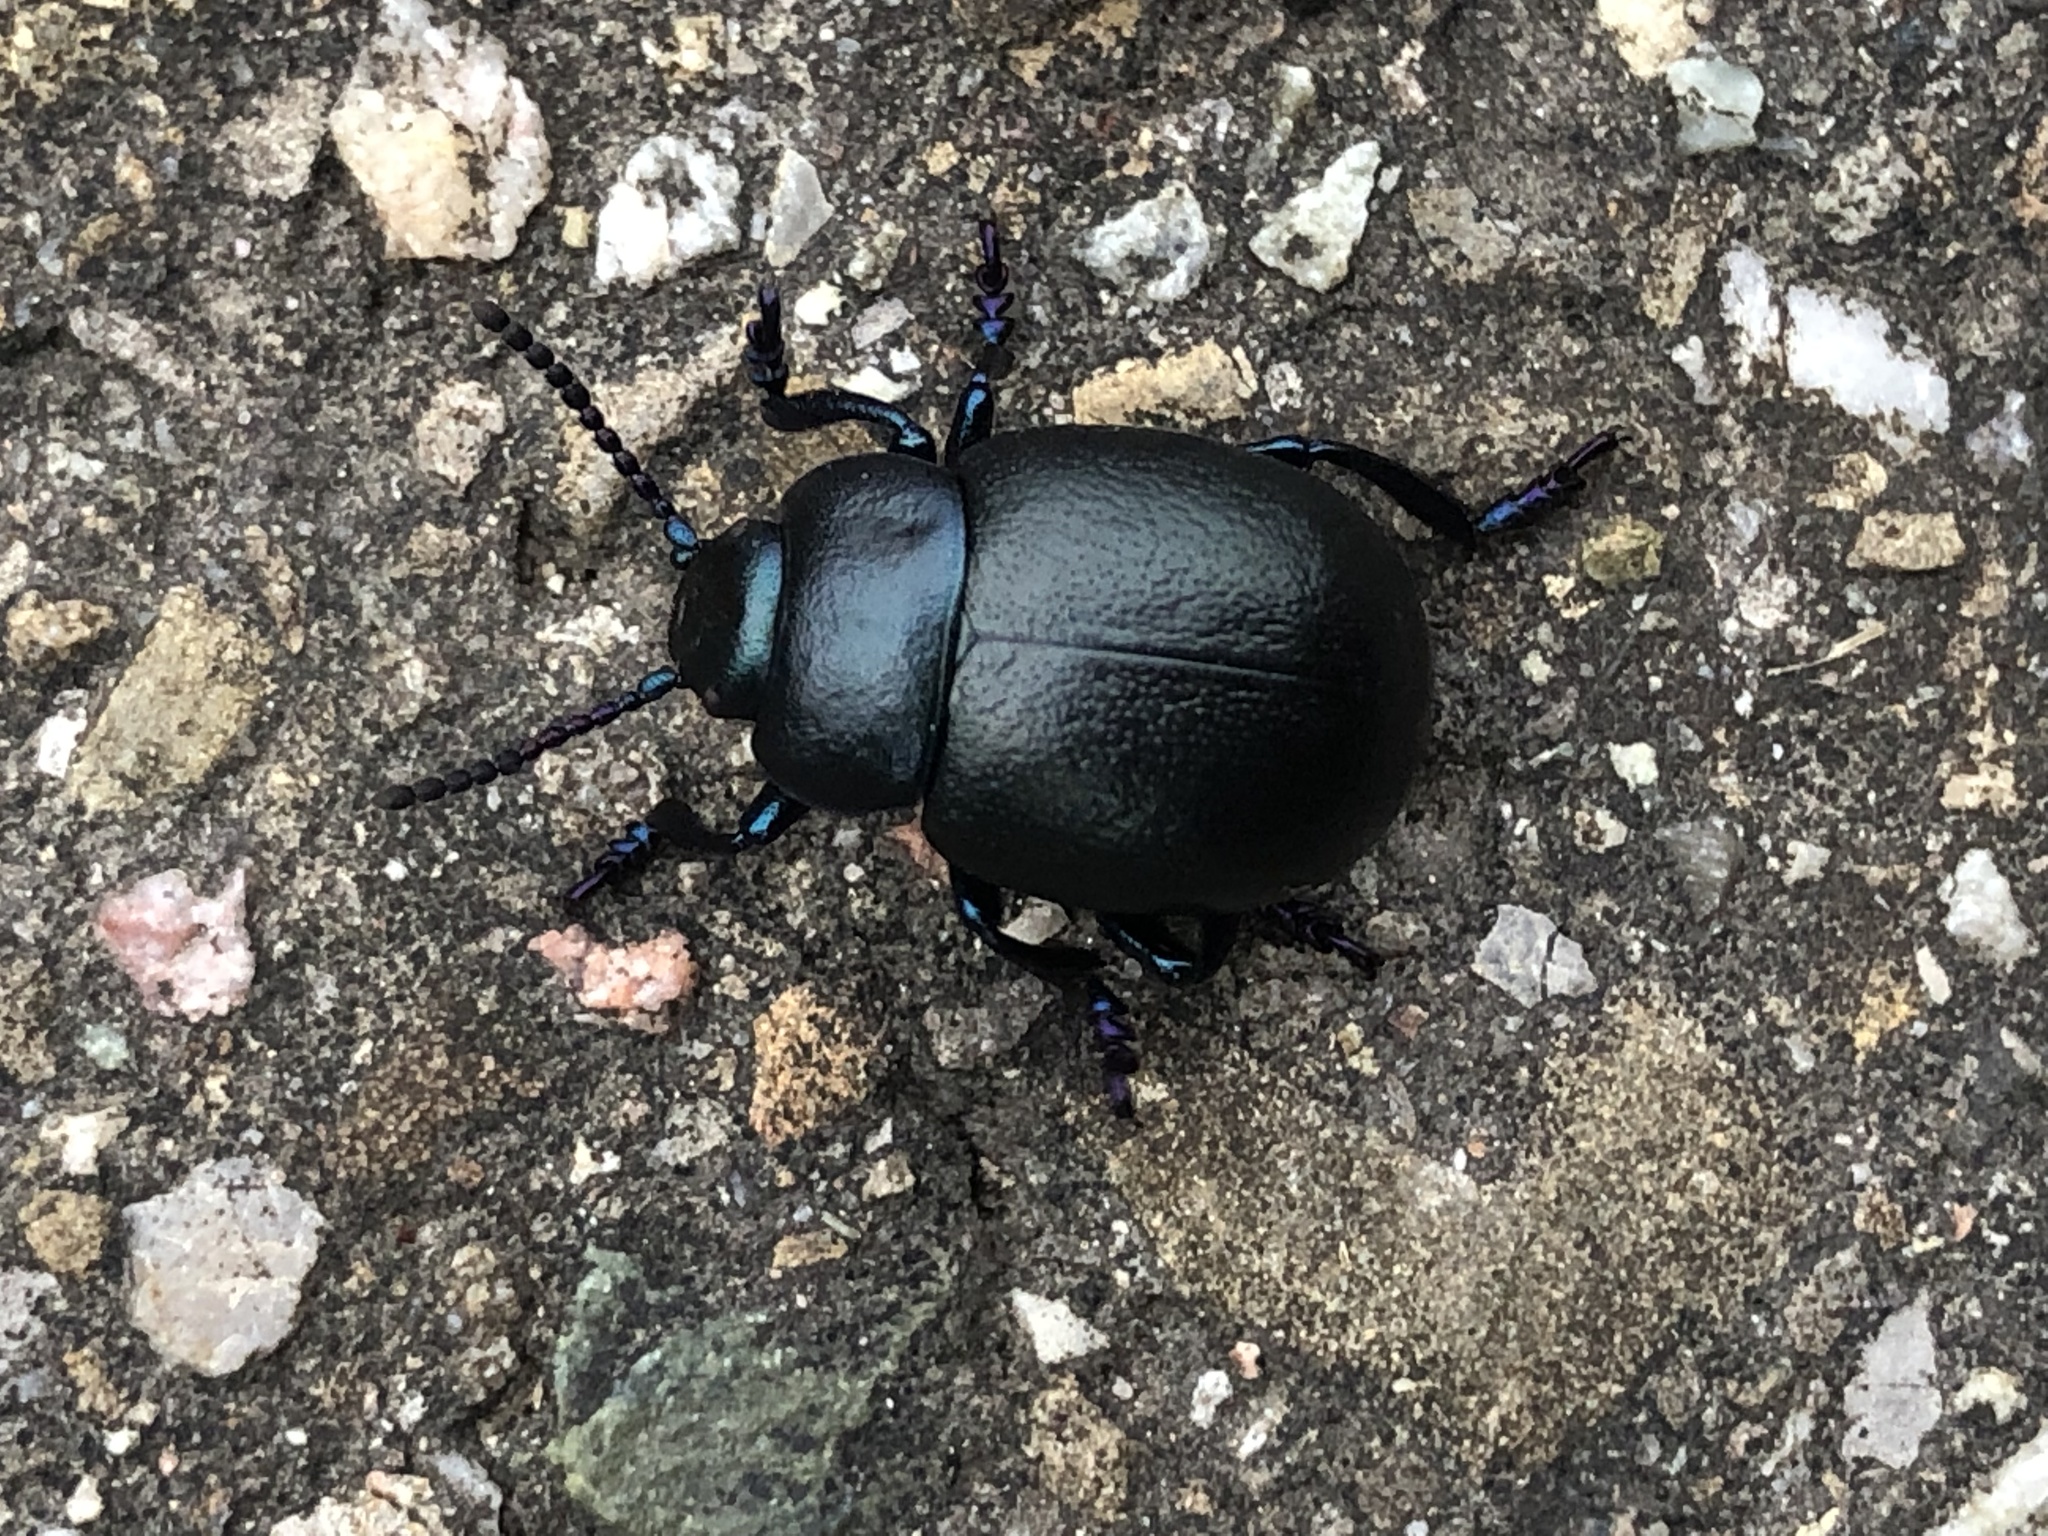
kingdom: Animalia
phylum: Arthropoda
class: Insecta
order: Coleoptera
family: Chrysomelidae
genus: Timarcha
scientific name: Timarcha goettingensis
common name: Small bloody-nosed beetle
